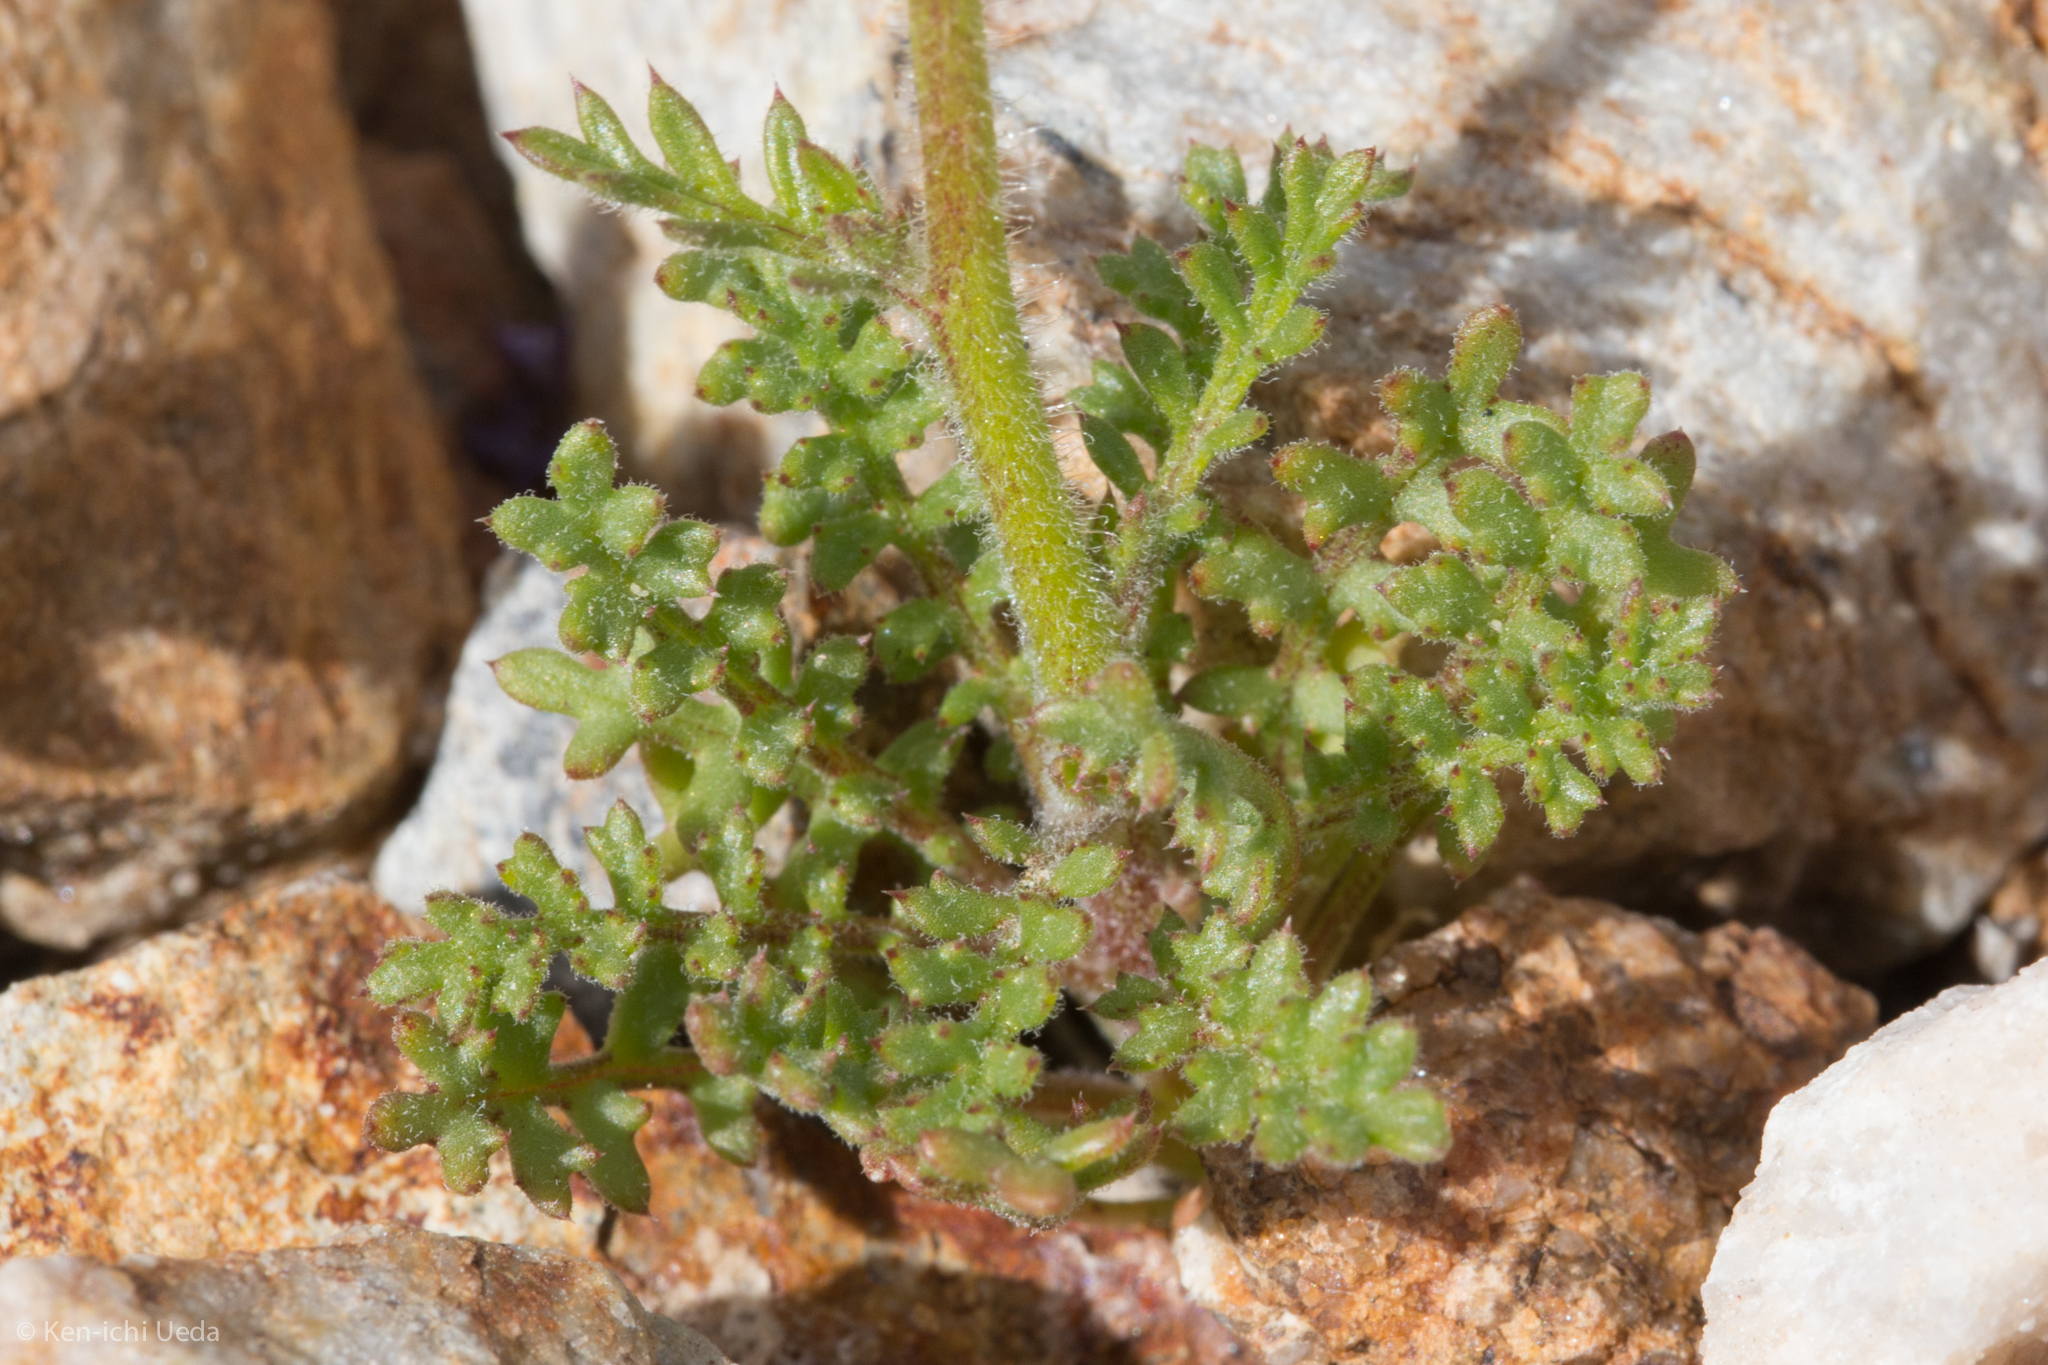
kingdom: Plantae
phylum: Tracheophyta
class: Magnoliopsida
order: Ericales
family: Polemoniaceae
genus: Gilia
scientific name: Gilia stellata
